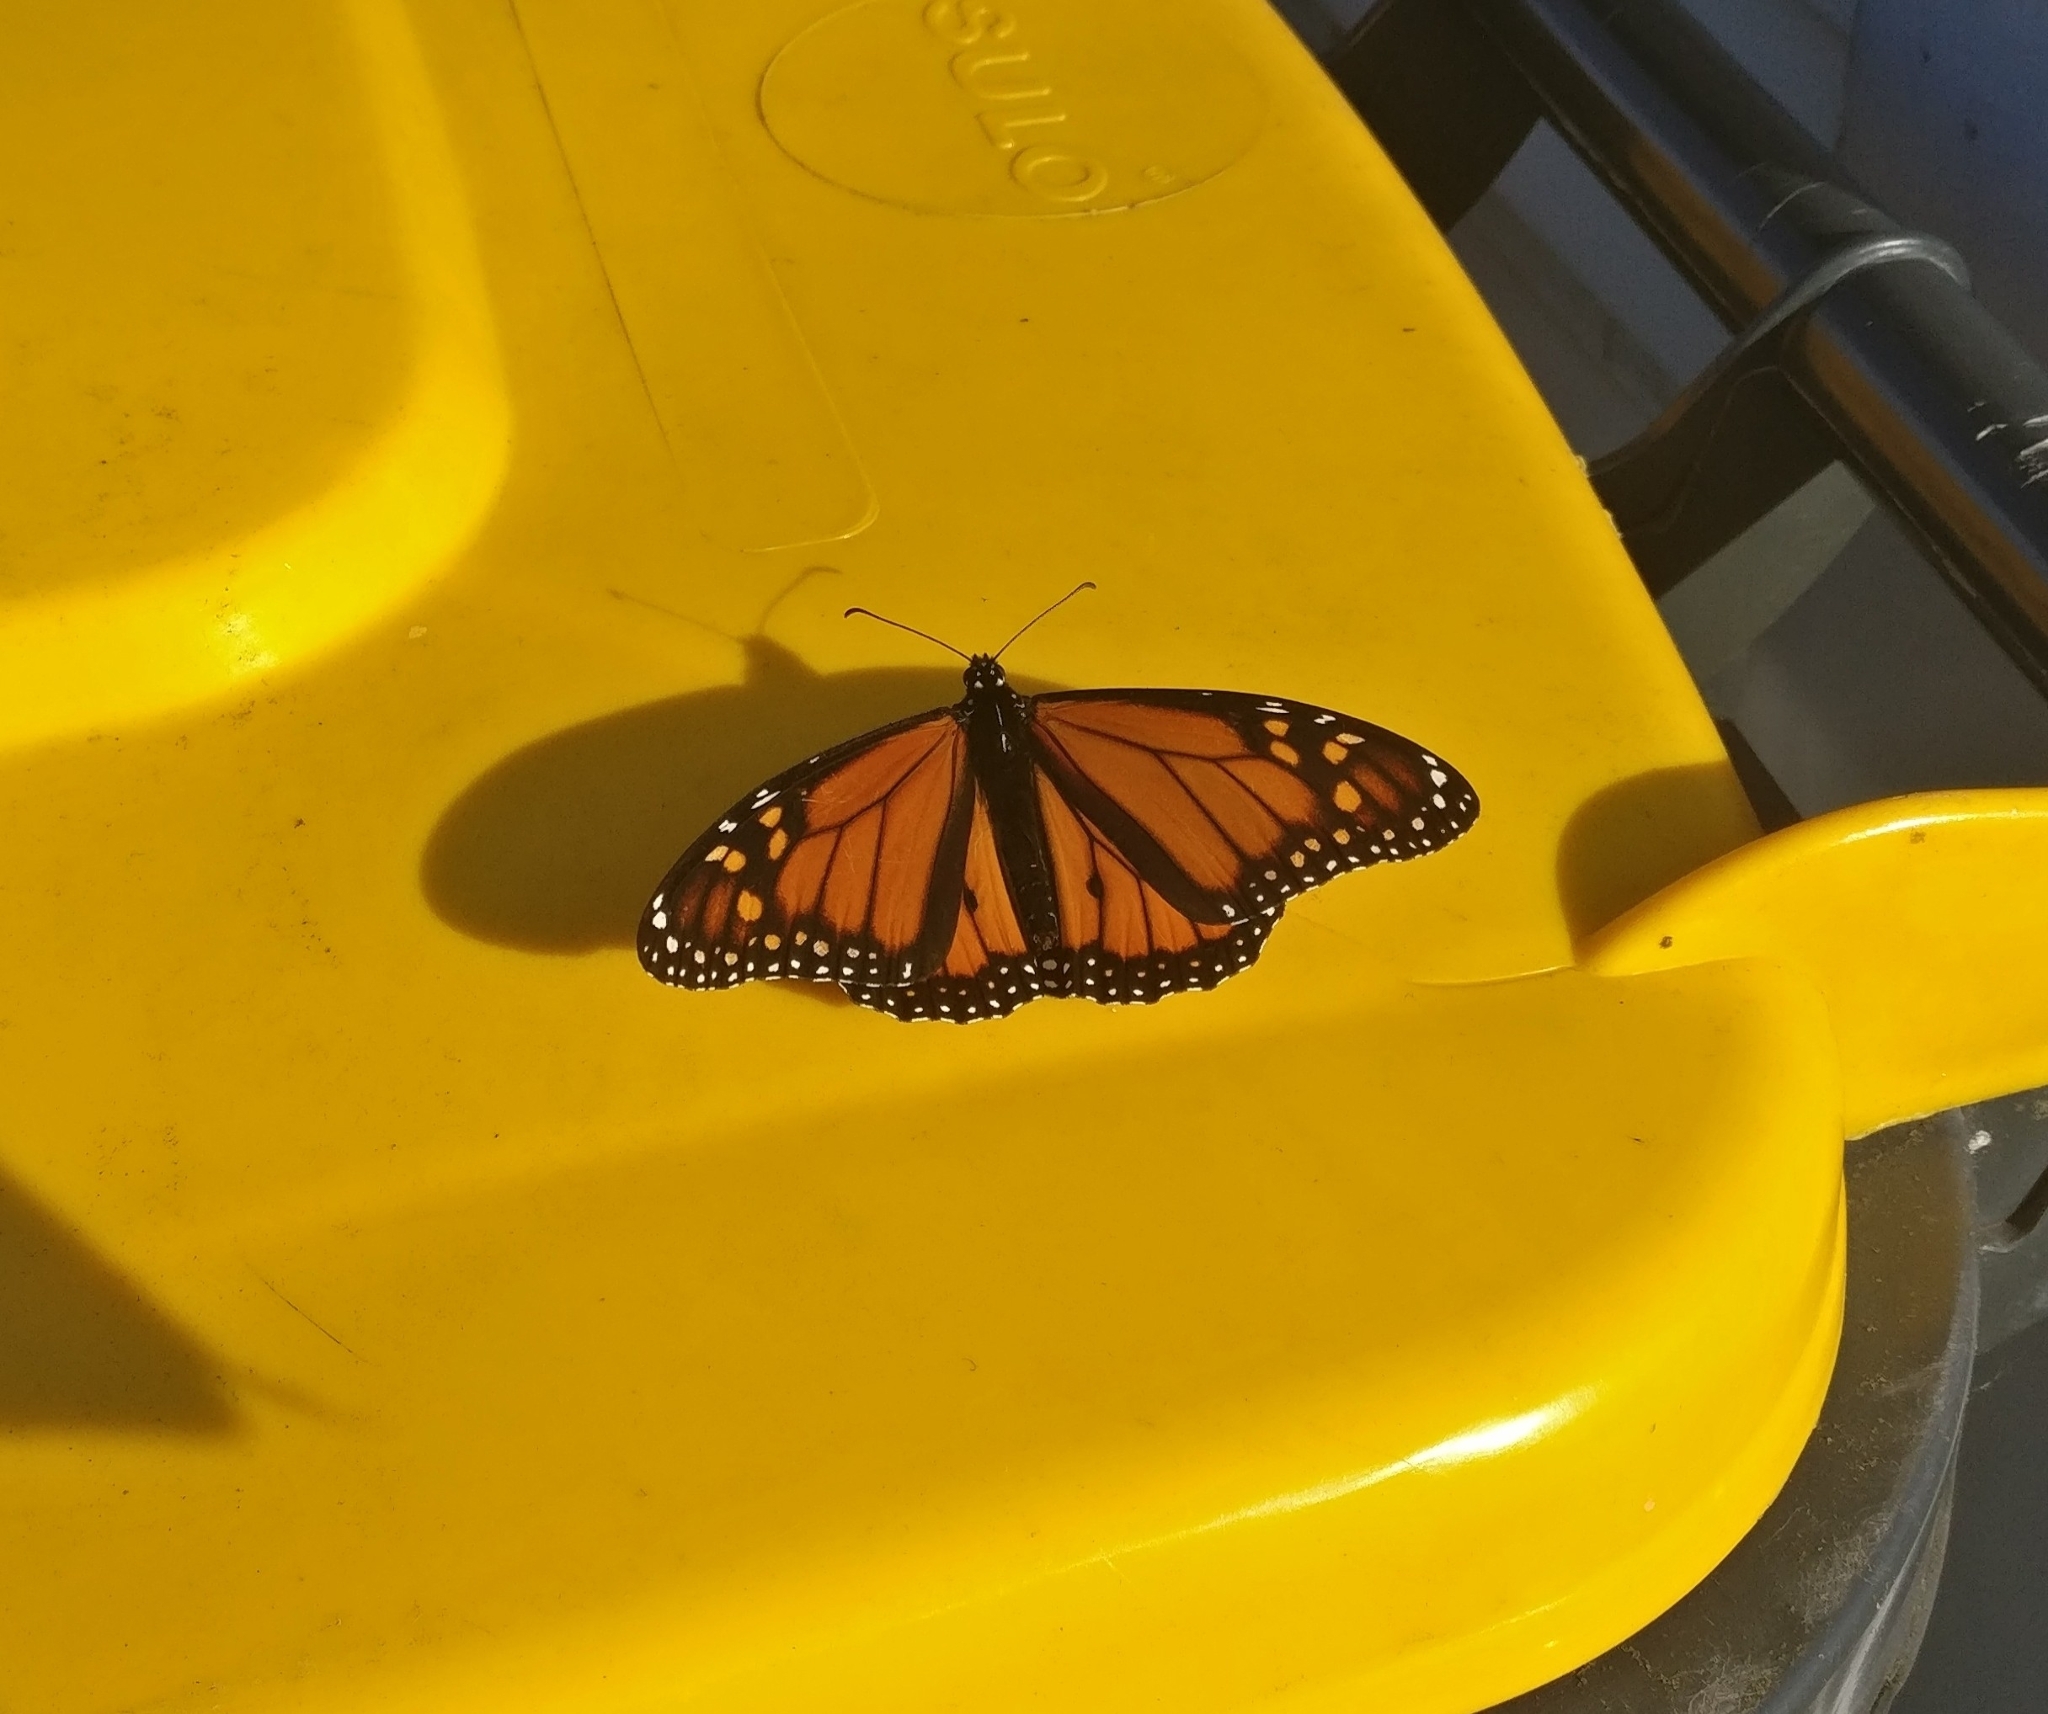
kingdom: Animalia
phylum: Arthropoda
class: Insecta
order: Lepidoptera
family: Nymphalidae
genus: Danaus
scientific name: Danaus plexippus
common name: Monarch
